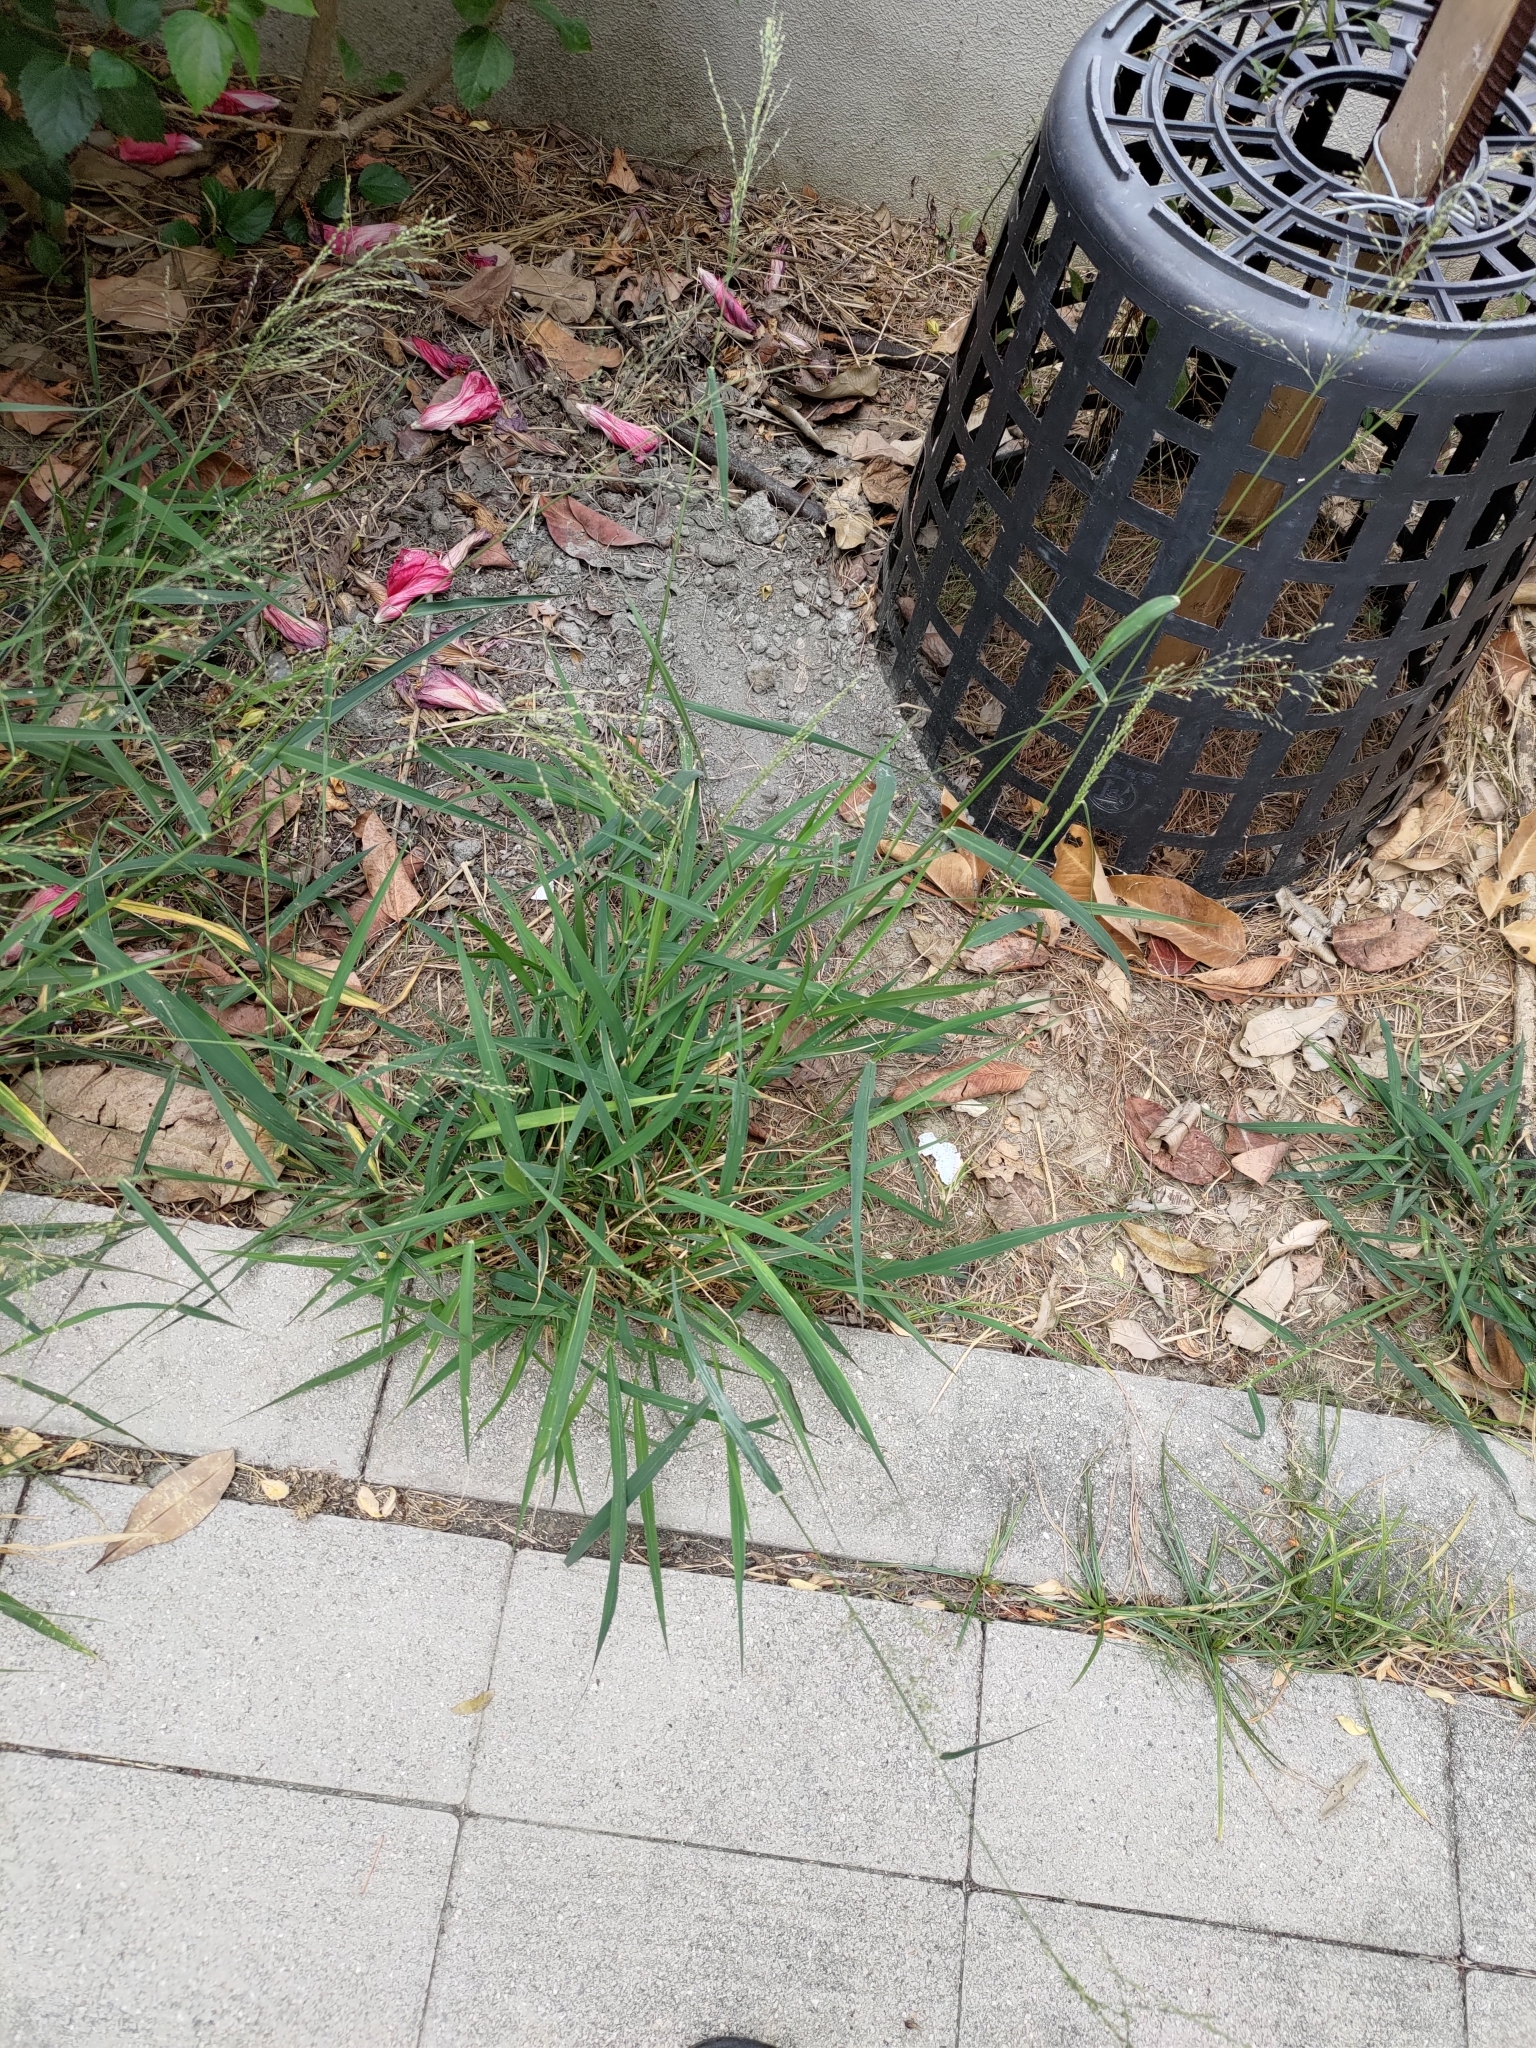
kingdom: Plantae
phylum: Tracheophyta
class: Liliopsida
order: Poales
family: Poaceae
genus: Megathyrsus
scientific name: Megathyrsus maximus
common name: Guineagrass
